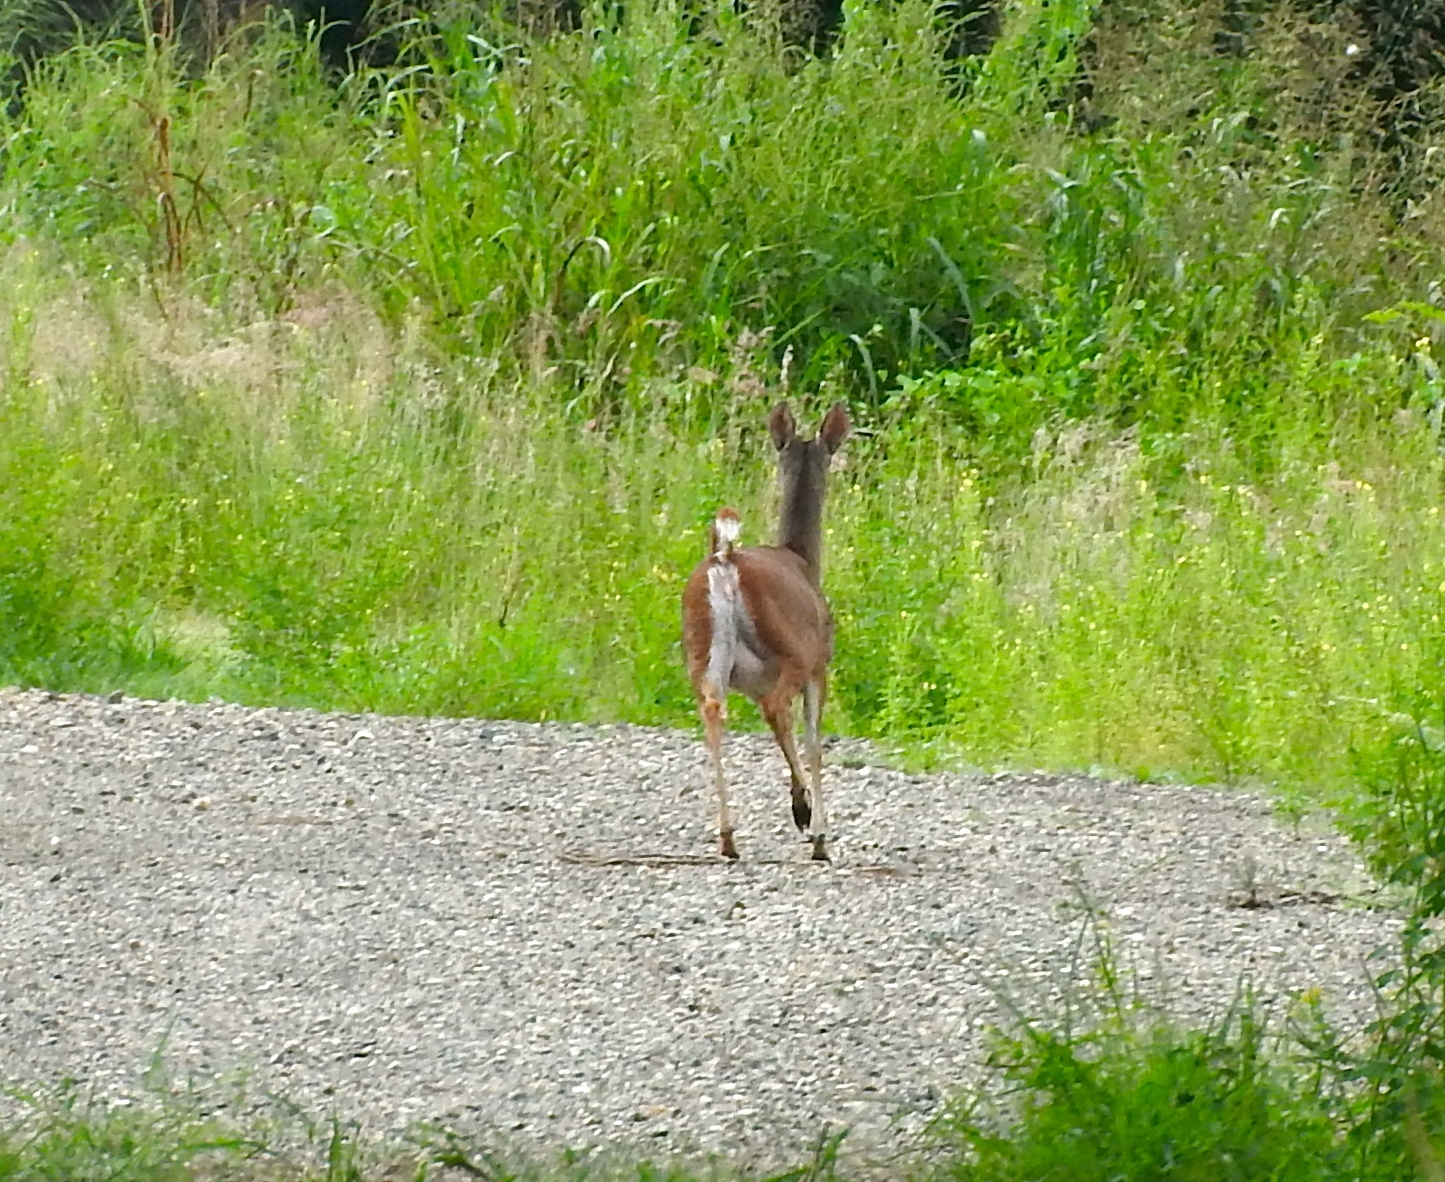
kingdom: Animalia
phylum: Chordata
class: Mammalia
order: Artiodactyla
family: Cervidae
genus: Odocoileus
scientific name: Odocoileus virginianus
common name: White-tailed deer
